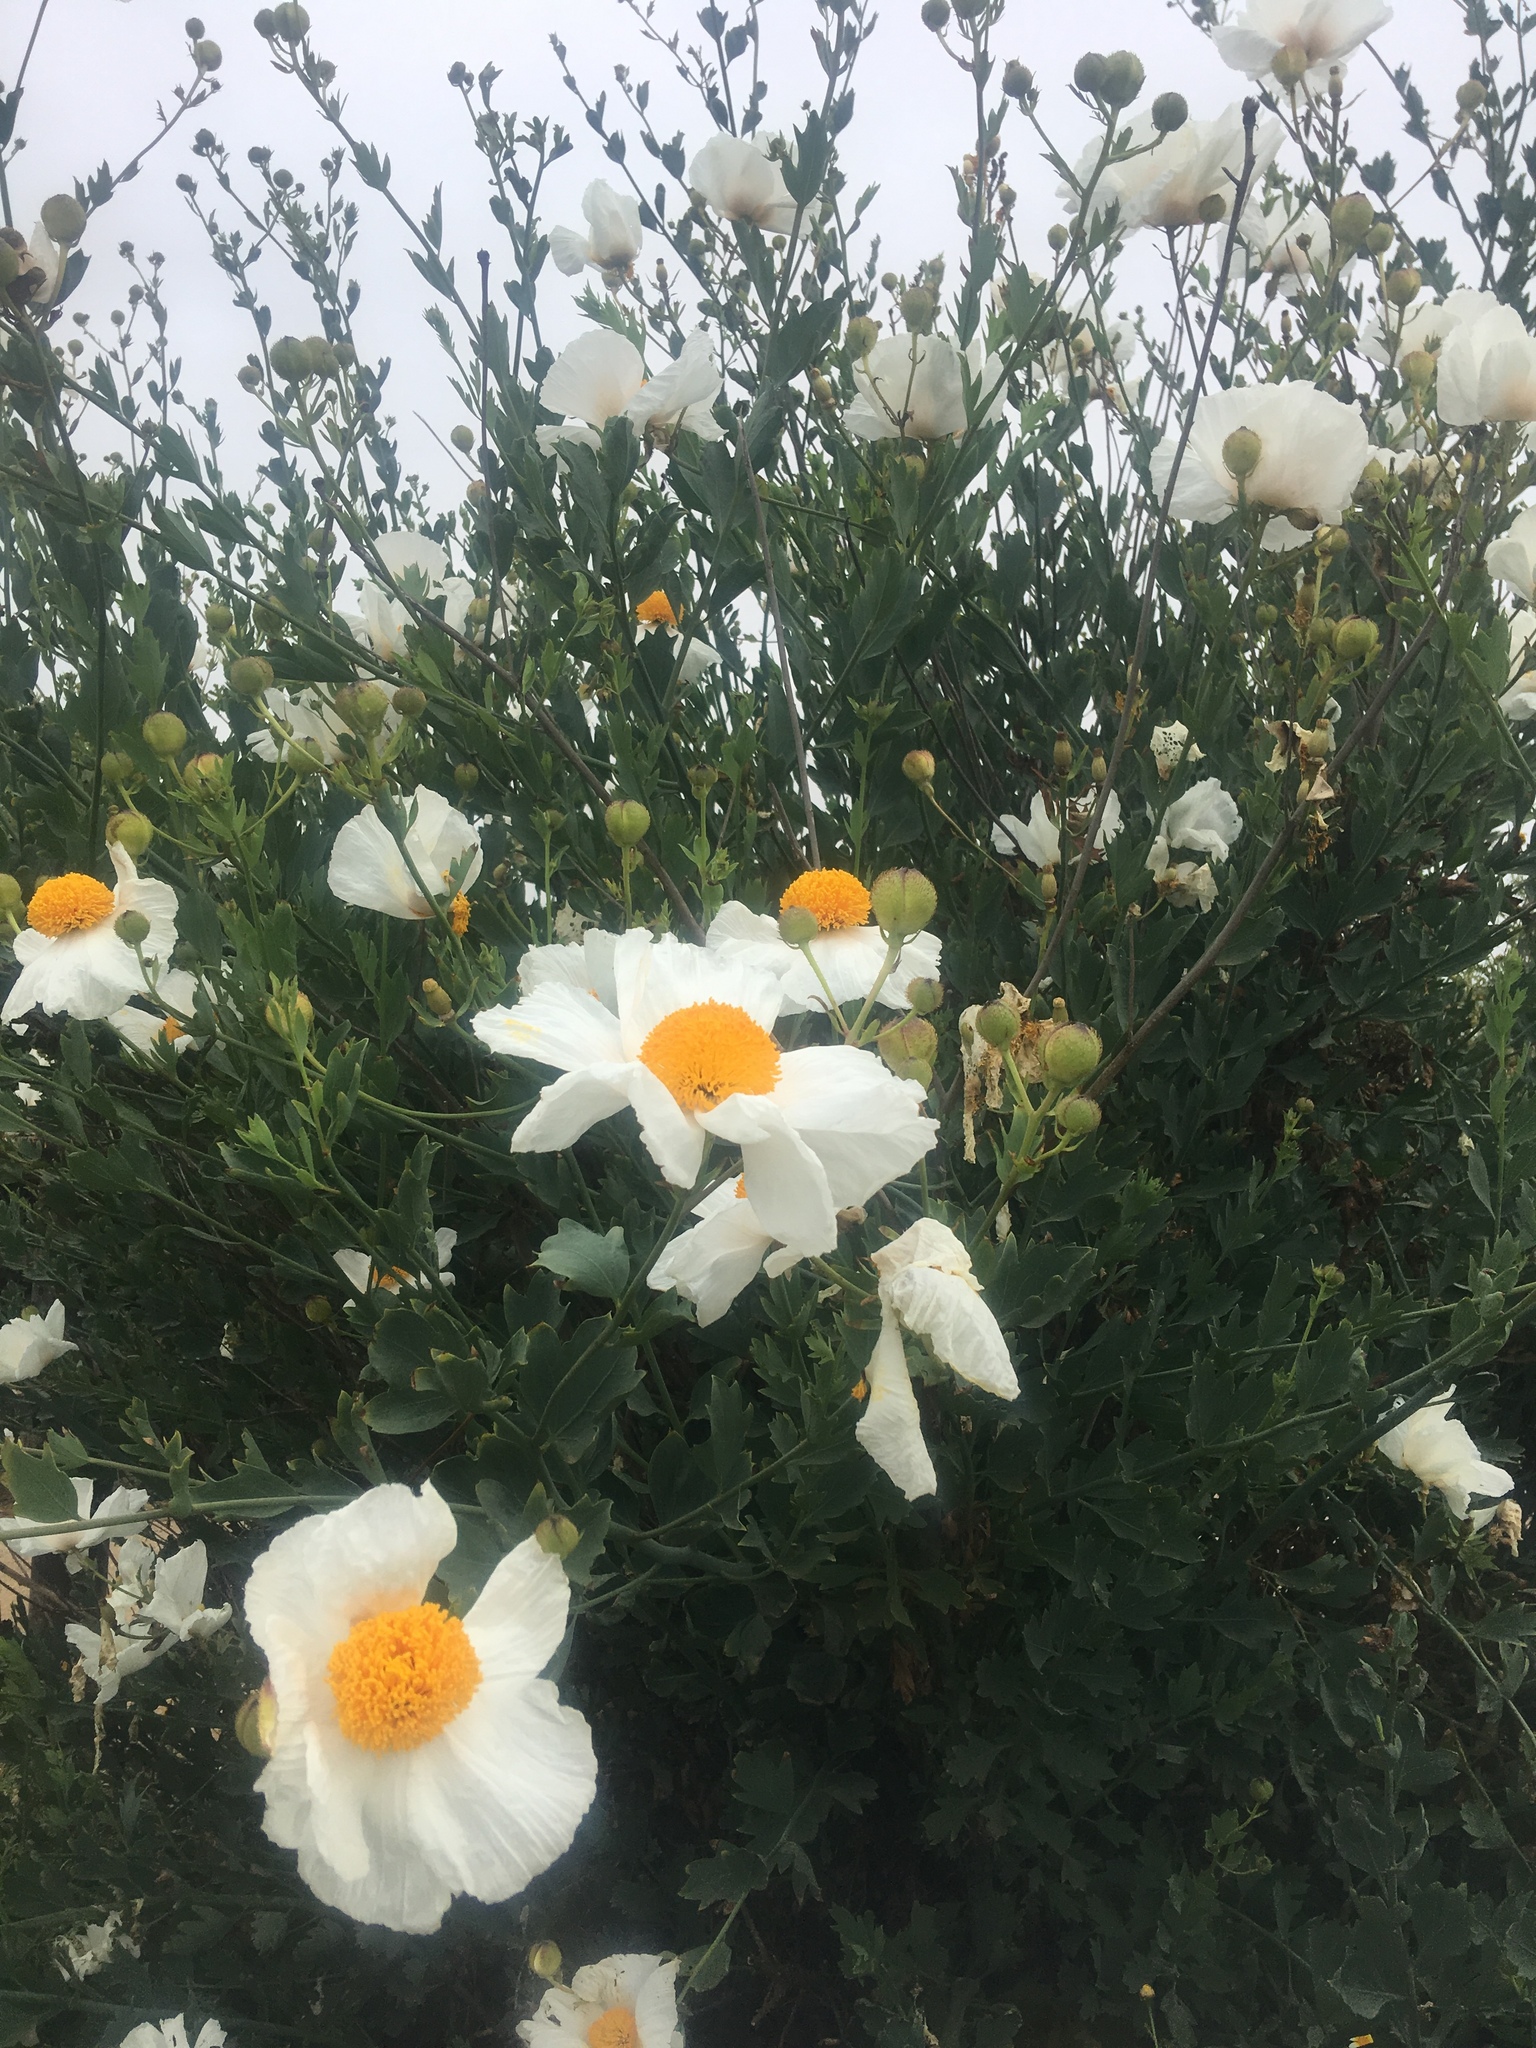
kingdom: Plantae
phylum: Tracheophyta
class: Magnoliopsida
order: Ranunculales
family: Papaveraceae
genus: Romneya
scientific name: Romneya trichocalyx
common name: Hairy matilija-poppy
